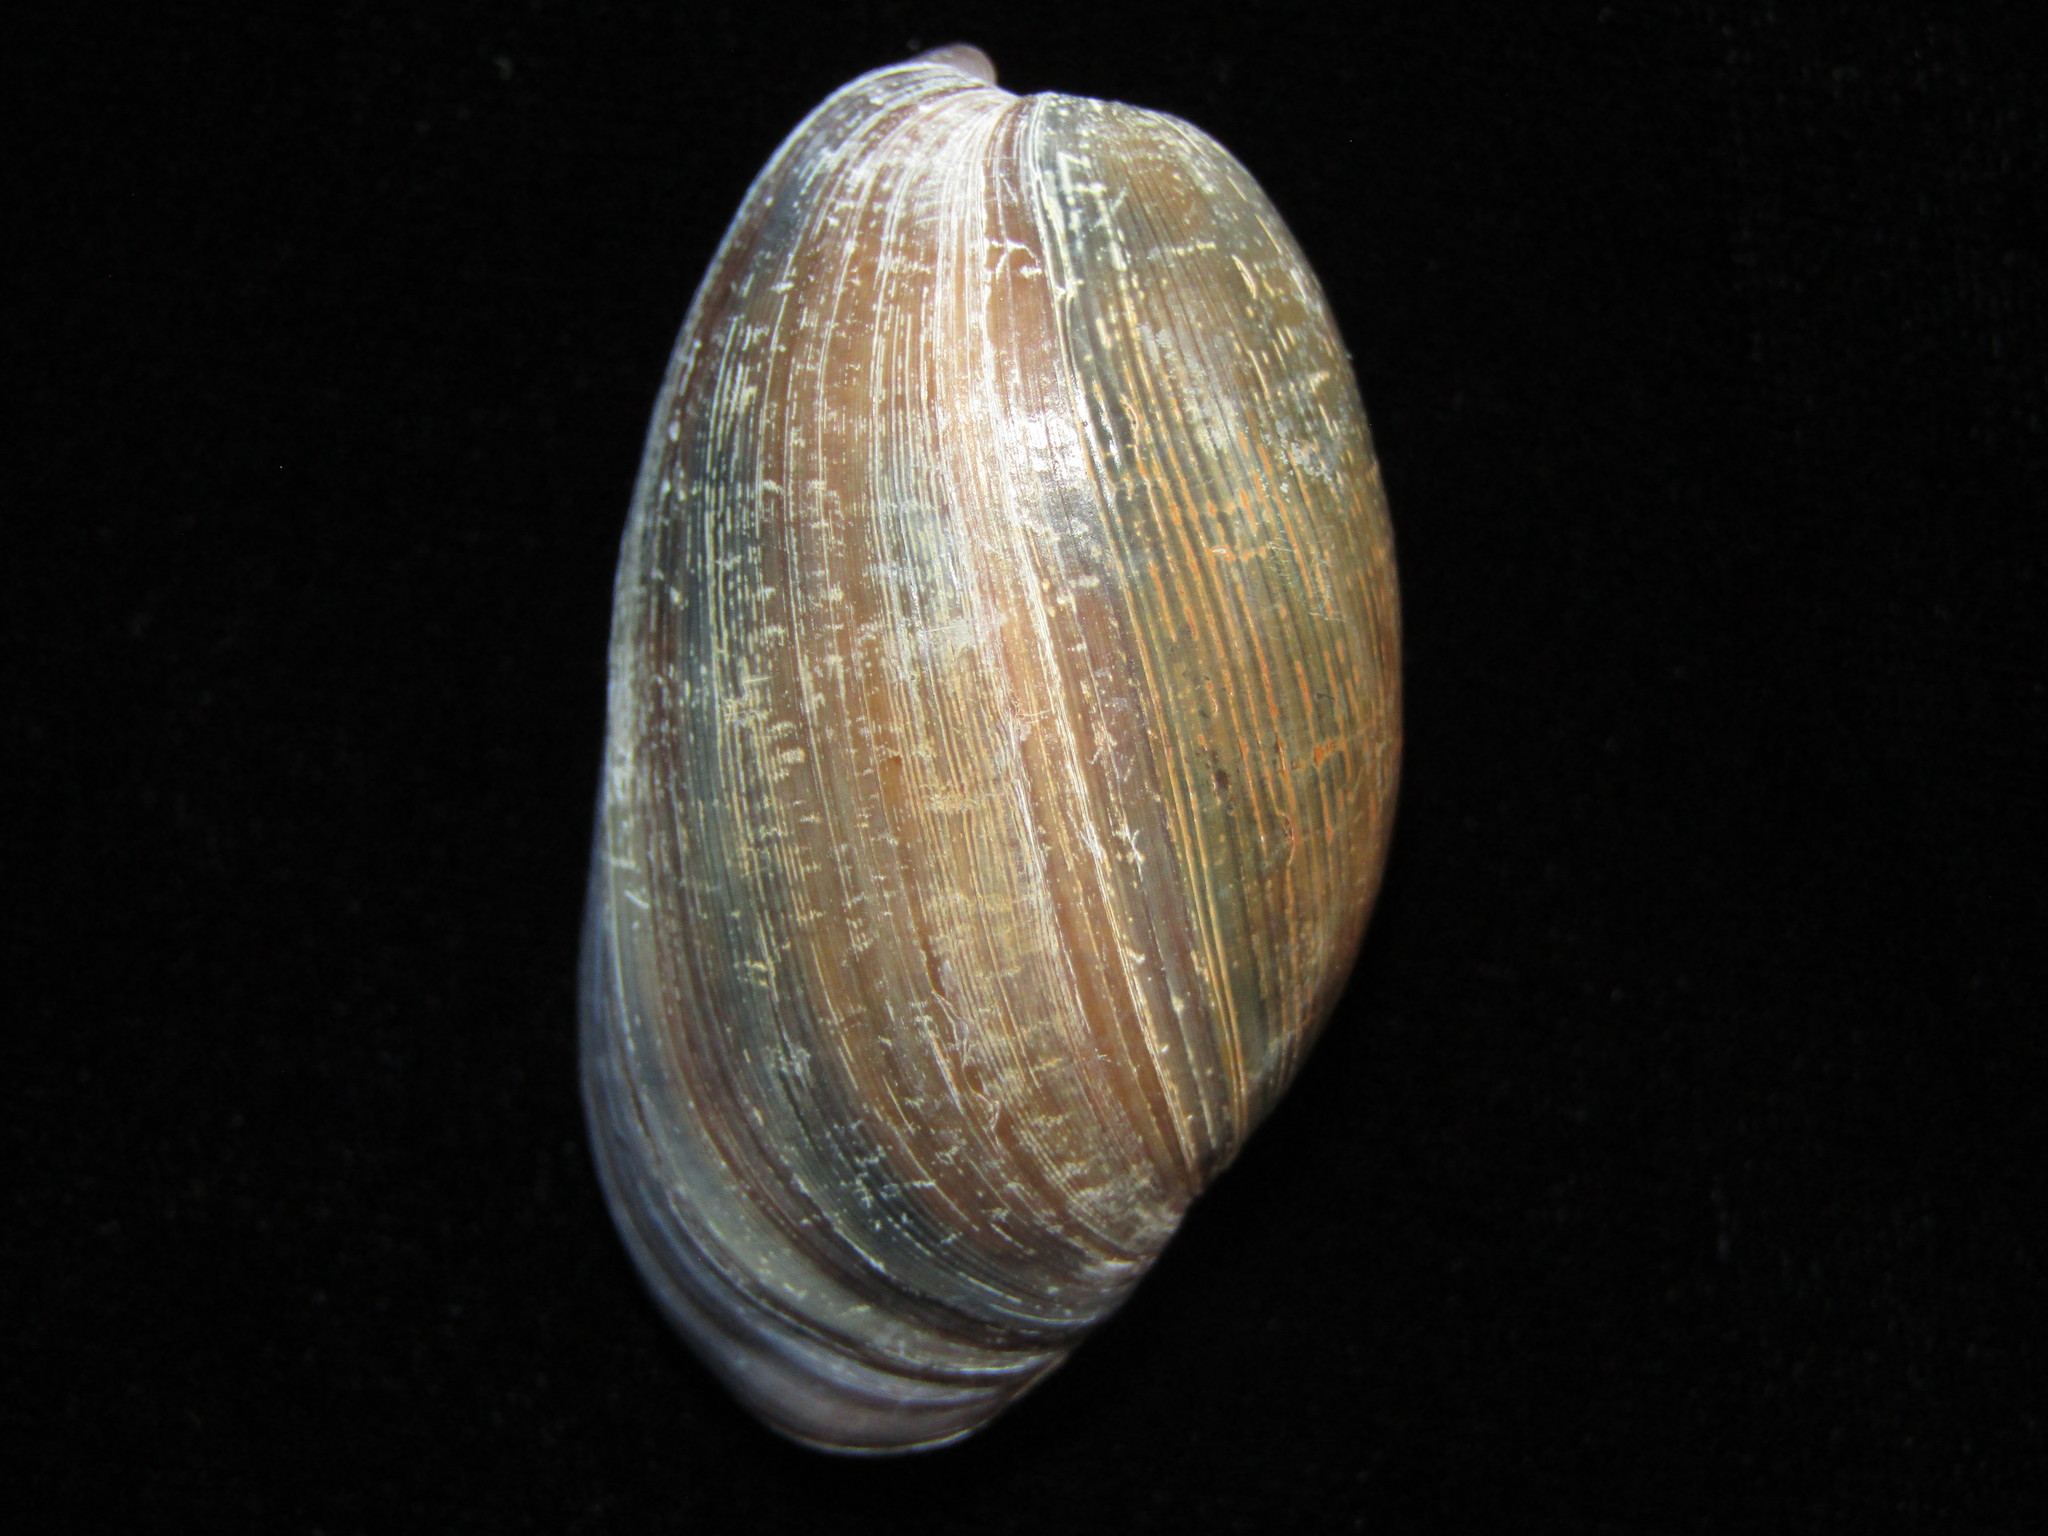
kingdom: Animalia
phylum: Mollusca
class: Gastropoda
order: Cephalaspidea
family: Bullidae
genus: Bulla
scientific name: Bulla quoyii
